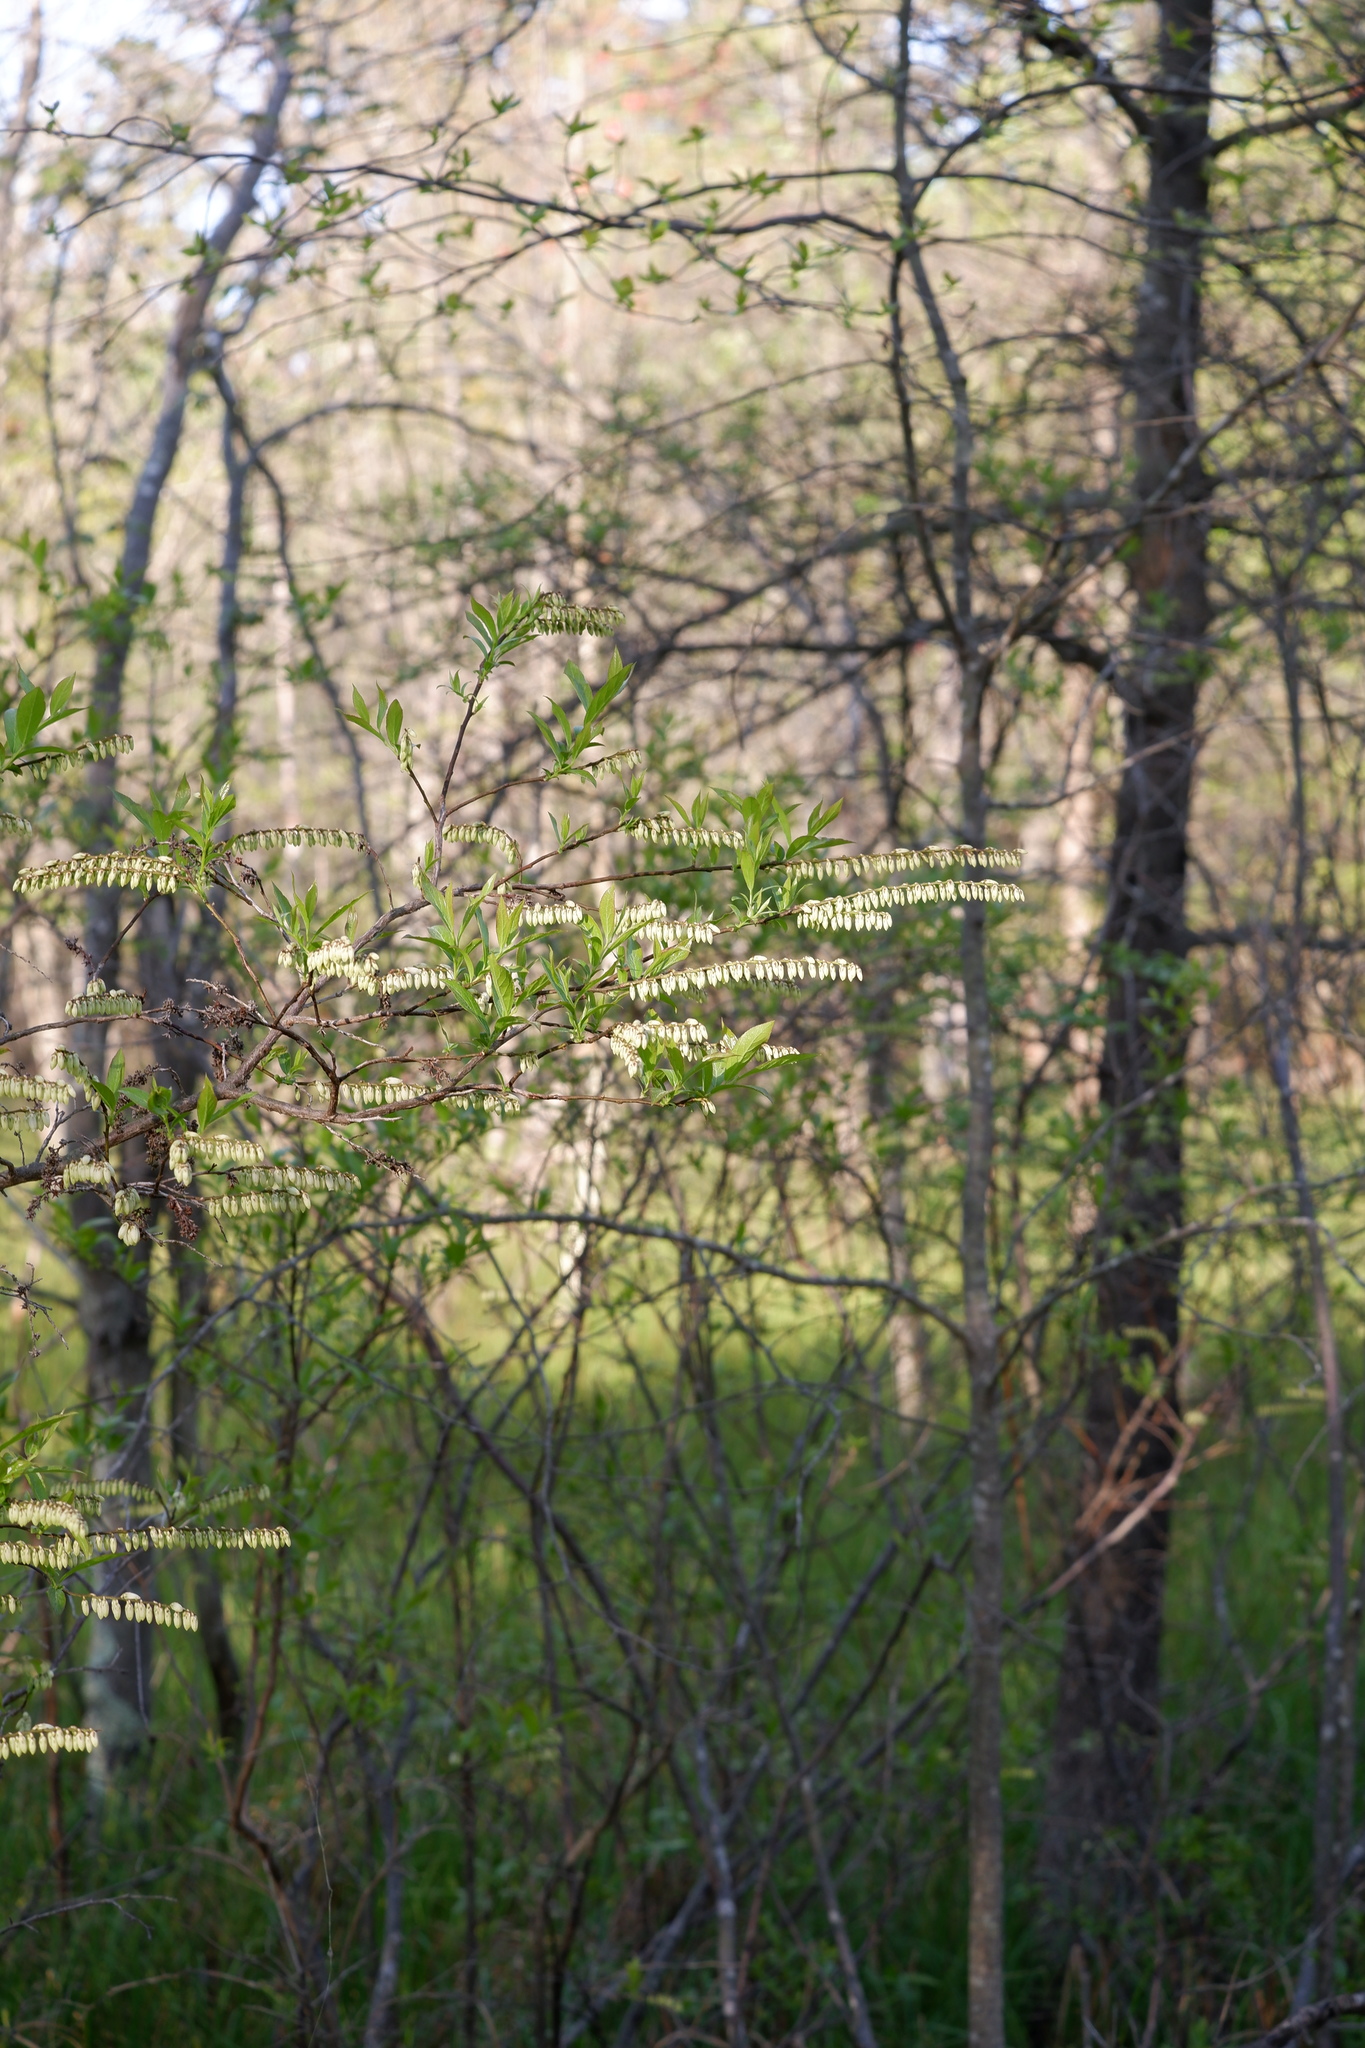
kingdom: Plantae
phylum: Tracheophyta
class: Magnoliopsida
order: Ericales
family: Ericaceae
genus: Eubotrys
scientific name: Eubotrys racemosa
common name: Fetterbush
